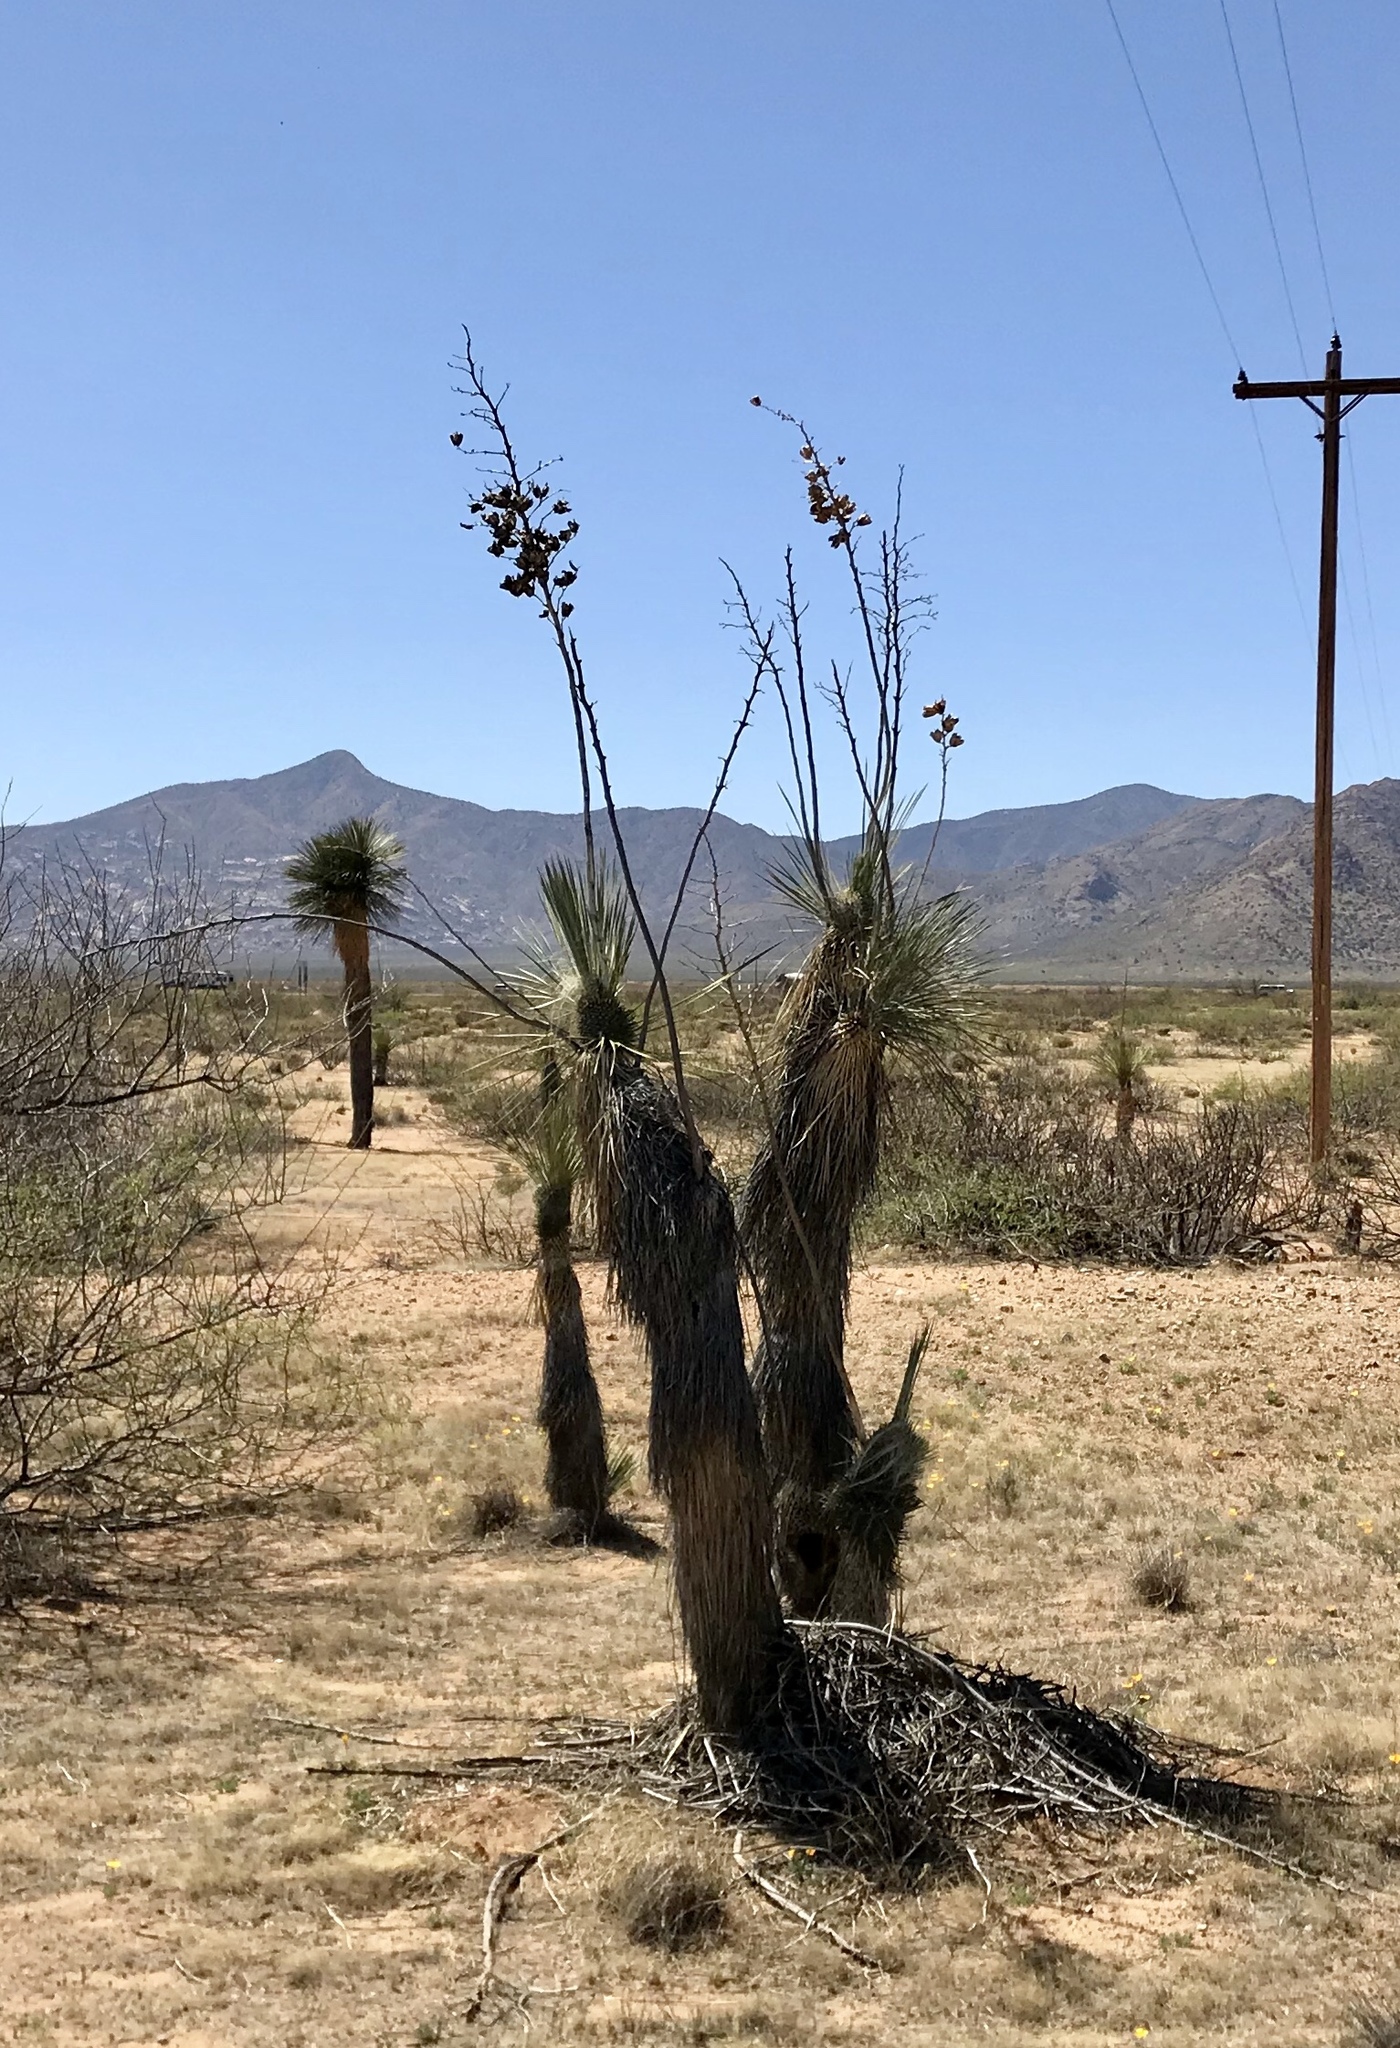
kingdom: Plantae
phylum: Tracheophyta
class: Liliopsida
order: Asparagales
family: Asparagaceae
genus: Yucca
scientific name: Yucca elata
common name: Palmella
